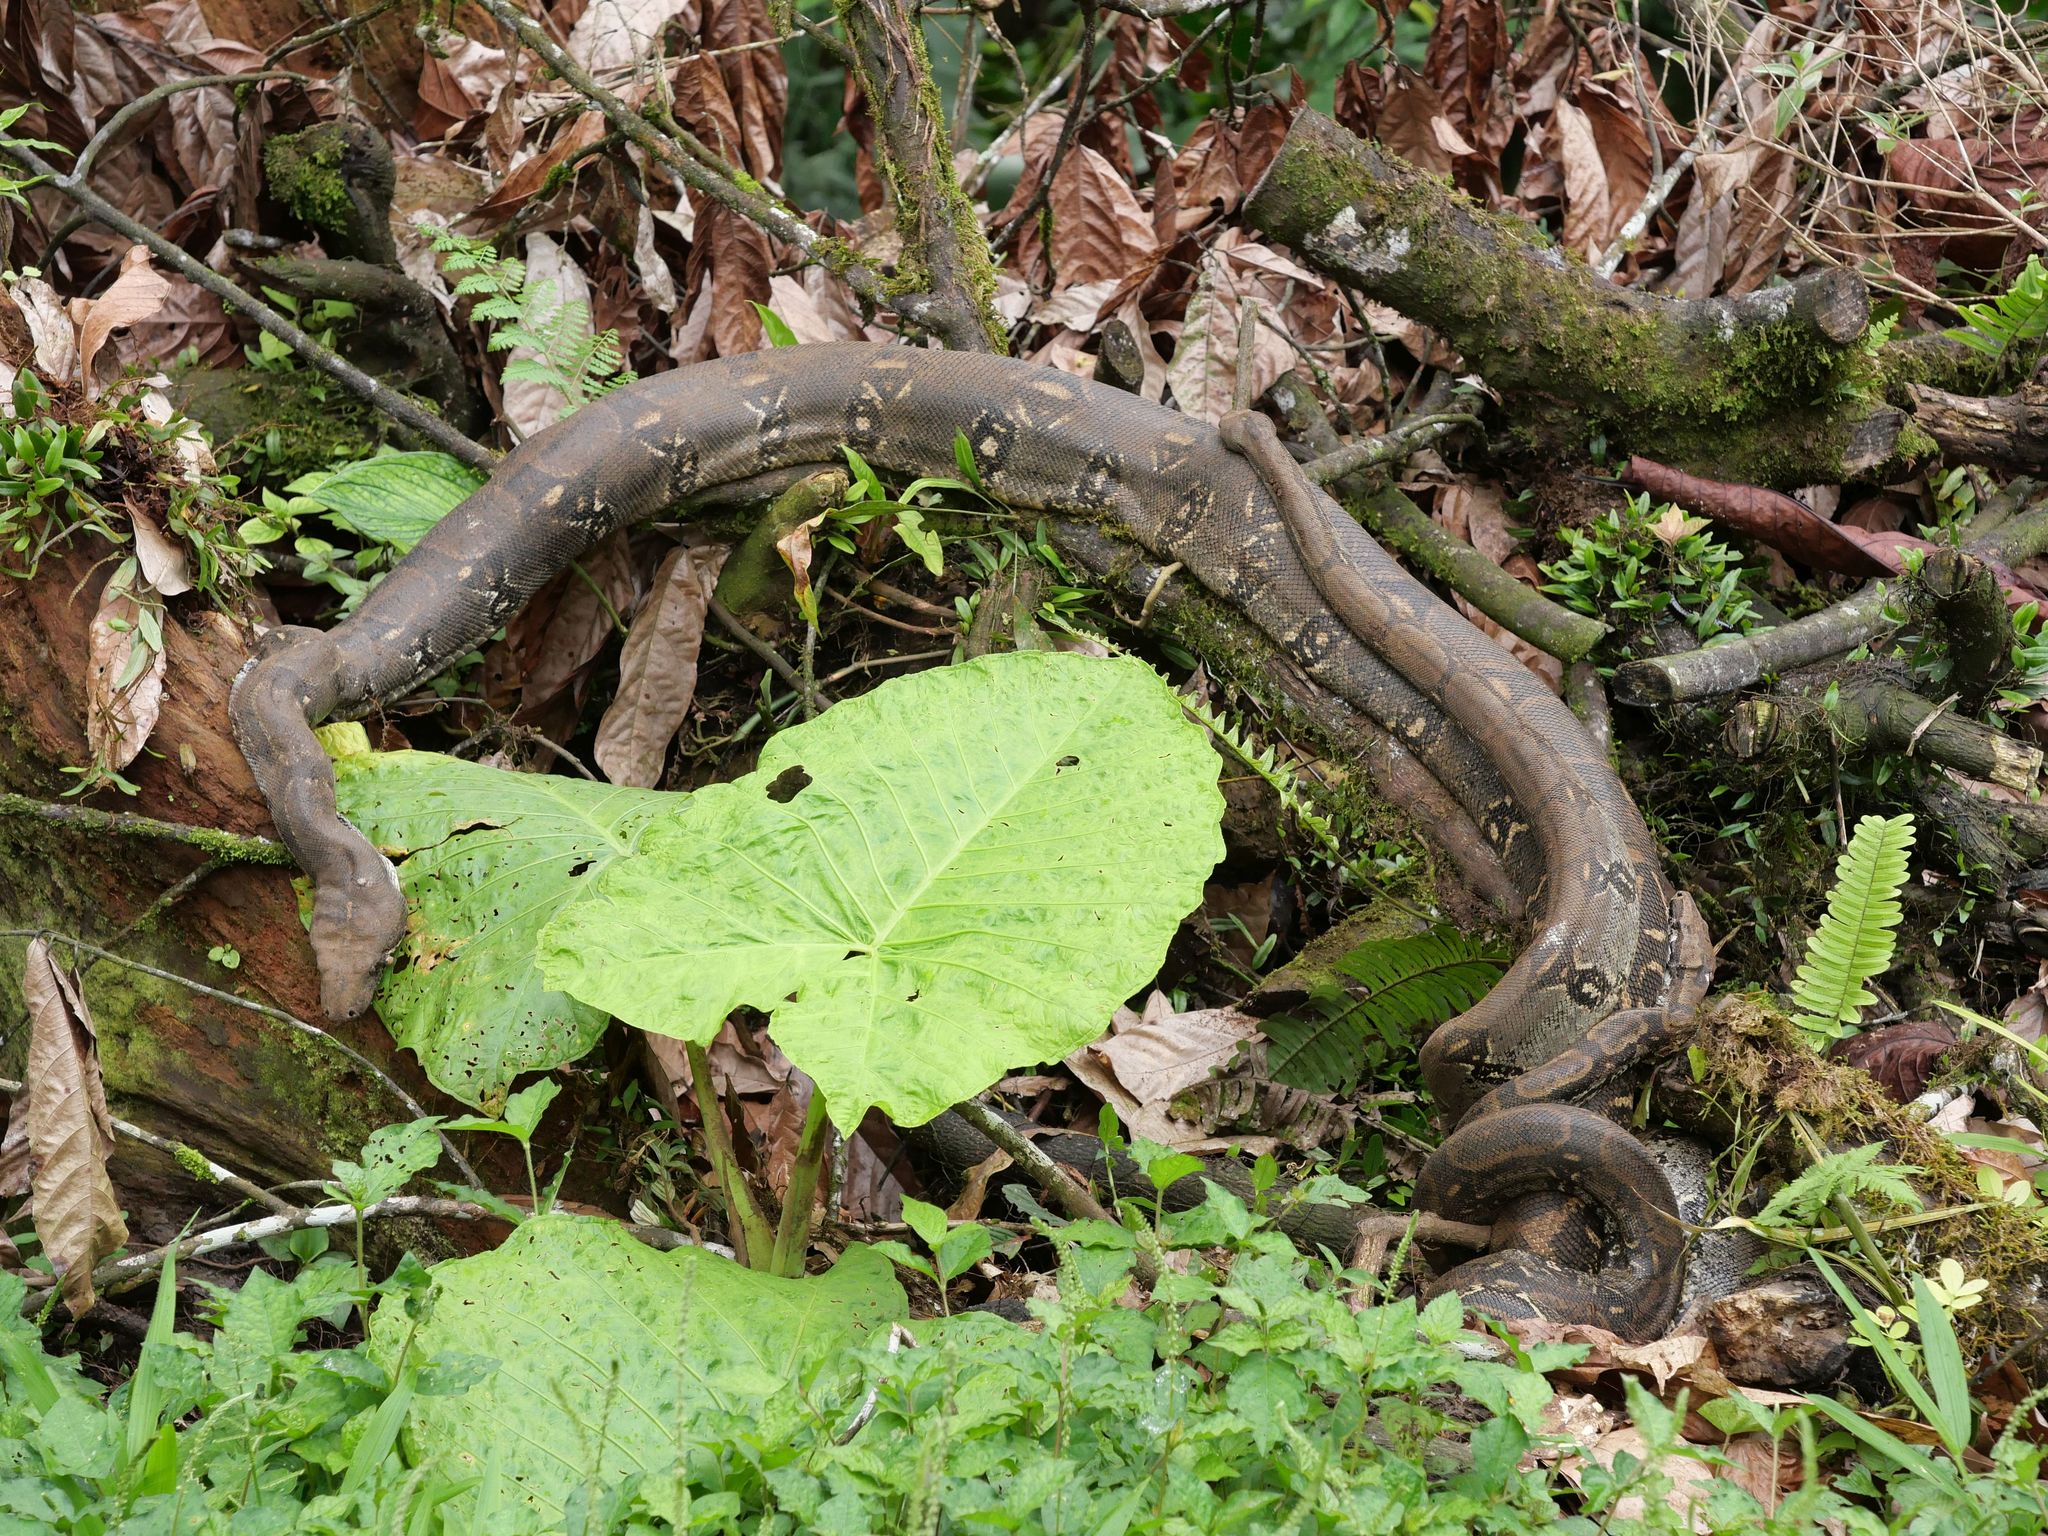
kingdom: Animalia
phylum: Chordata
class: Squamata
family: Boidae
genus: Boa
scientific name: Boa imperator
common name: Central american boa
